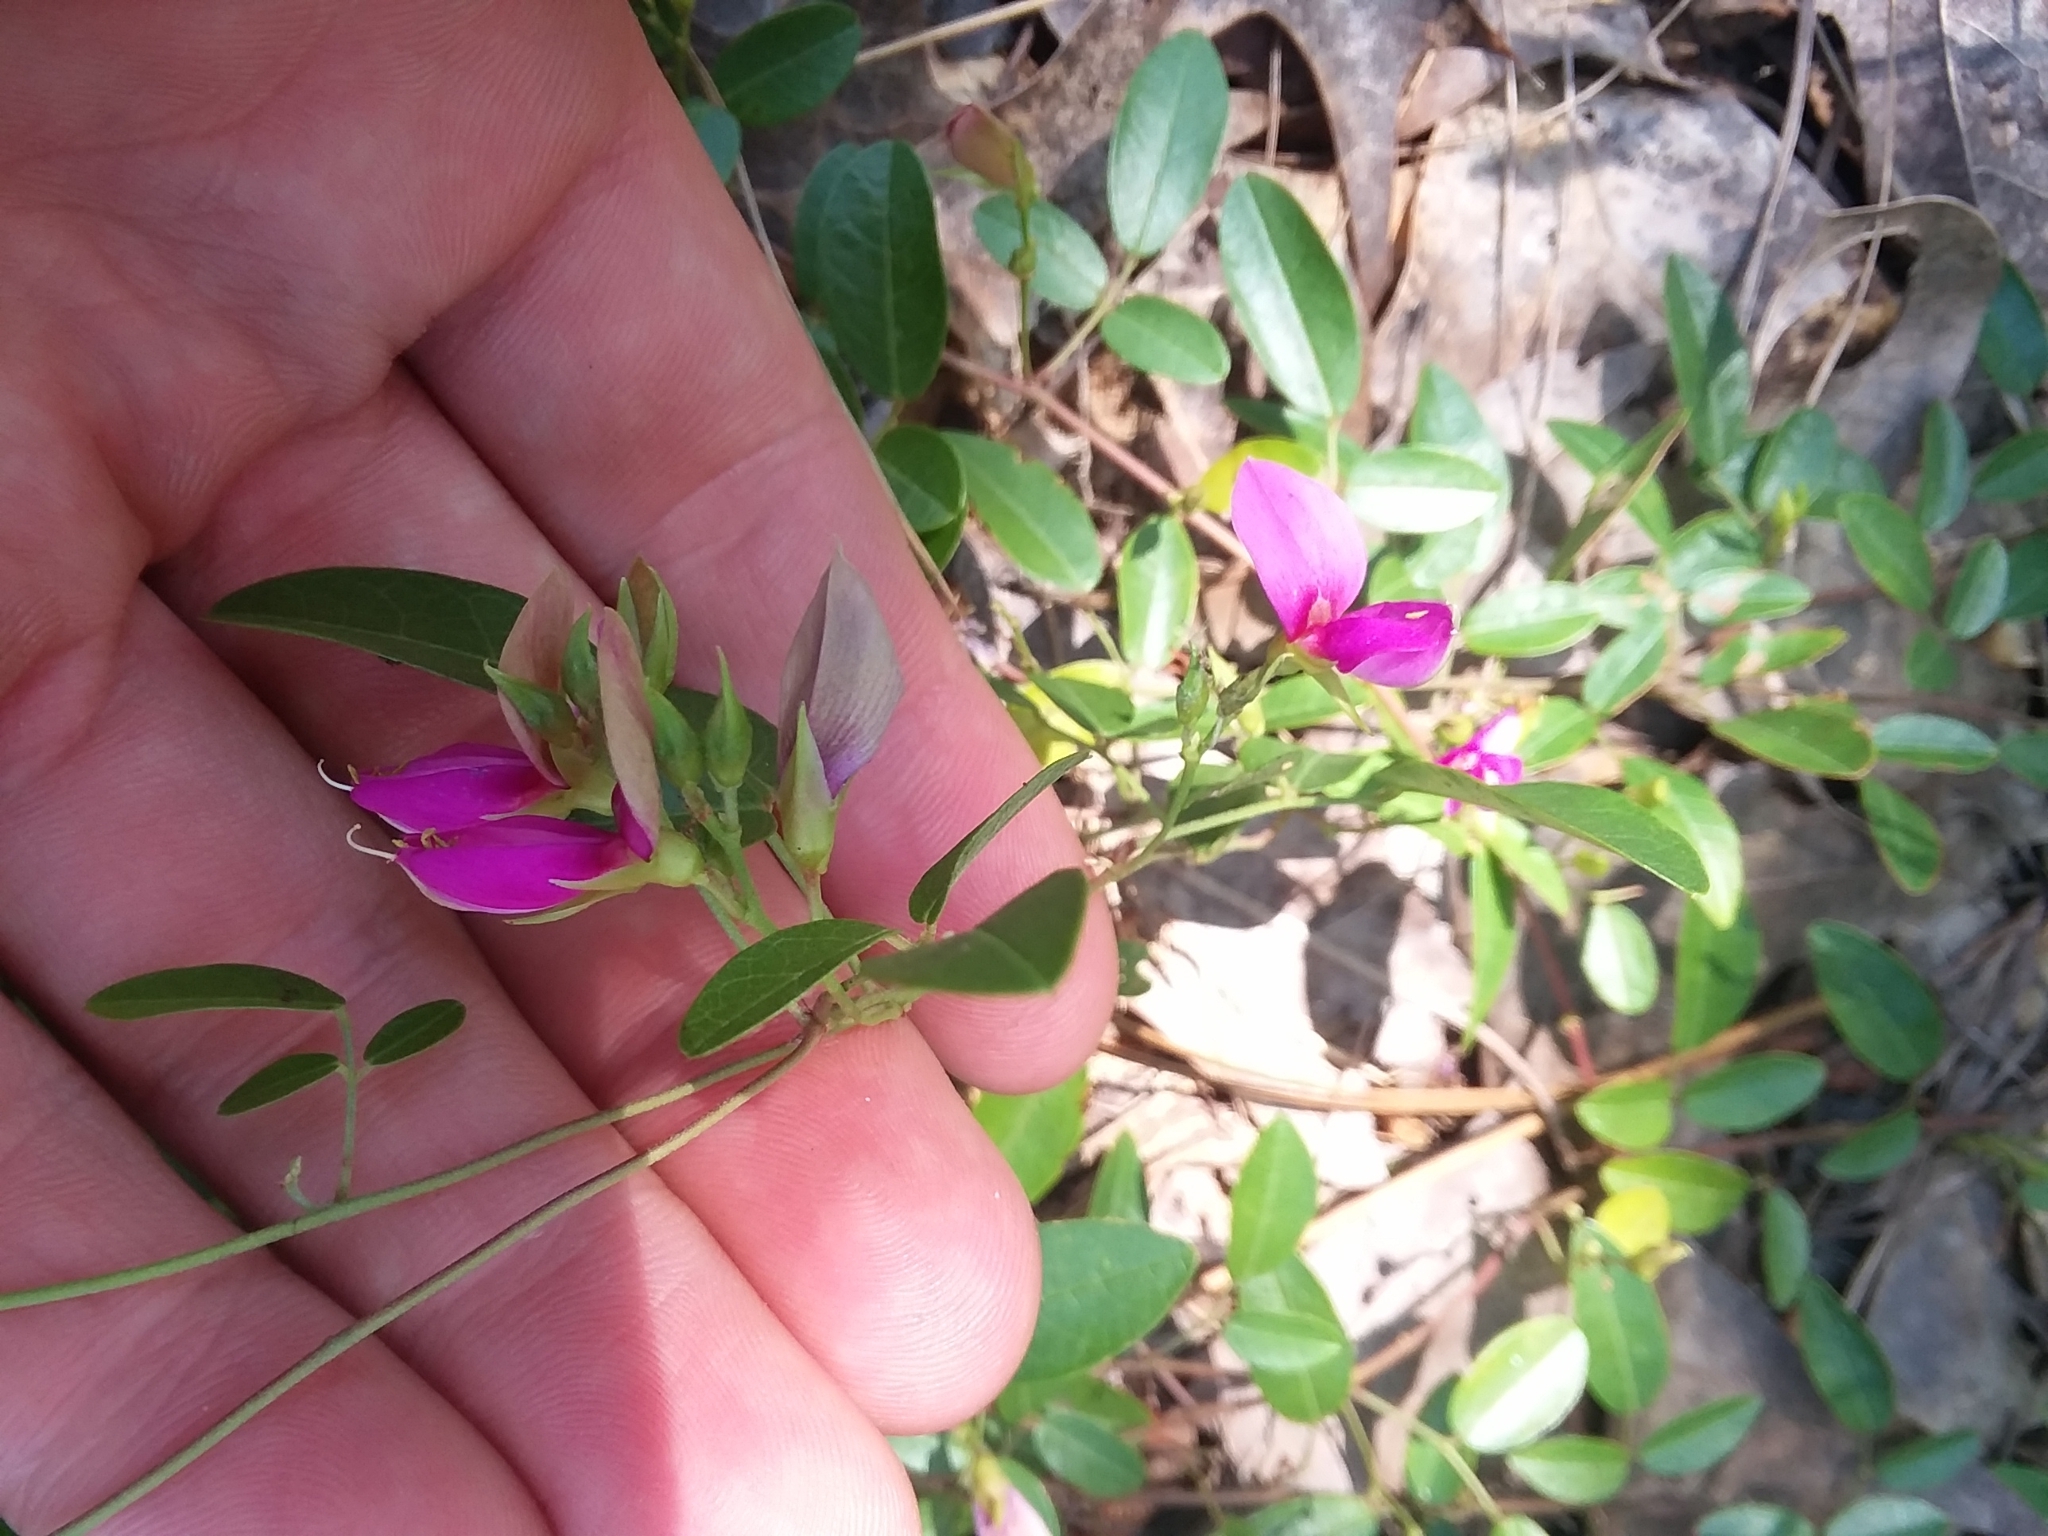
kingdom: Plantae
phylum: Tracheophyta
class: Magnoliopsida
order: Fabales
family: Fabaceae
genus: Galactia
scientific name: Galactia microphylla
